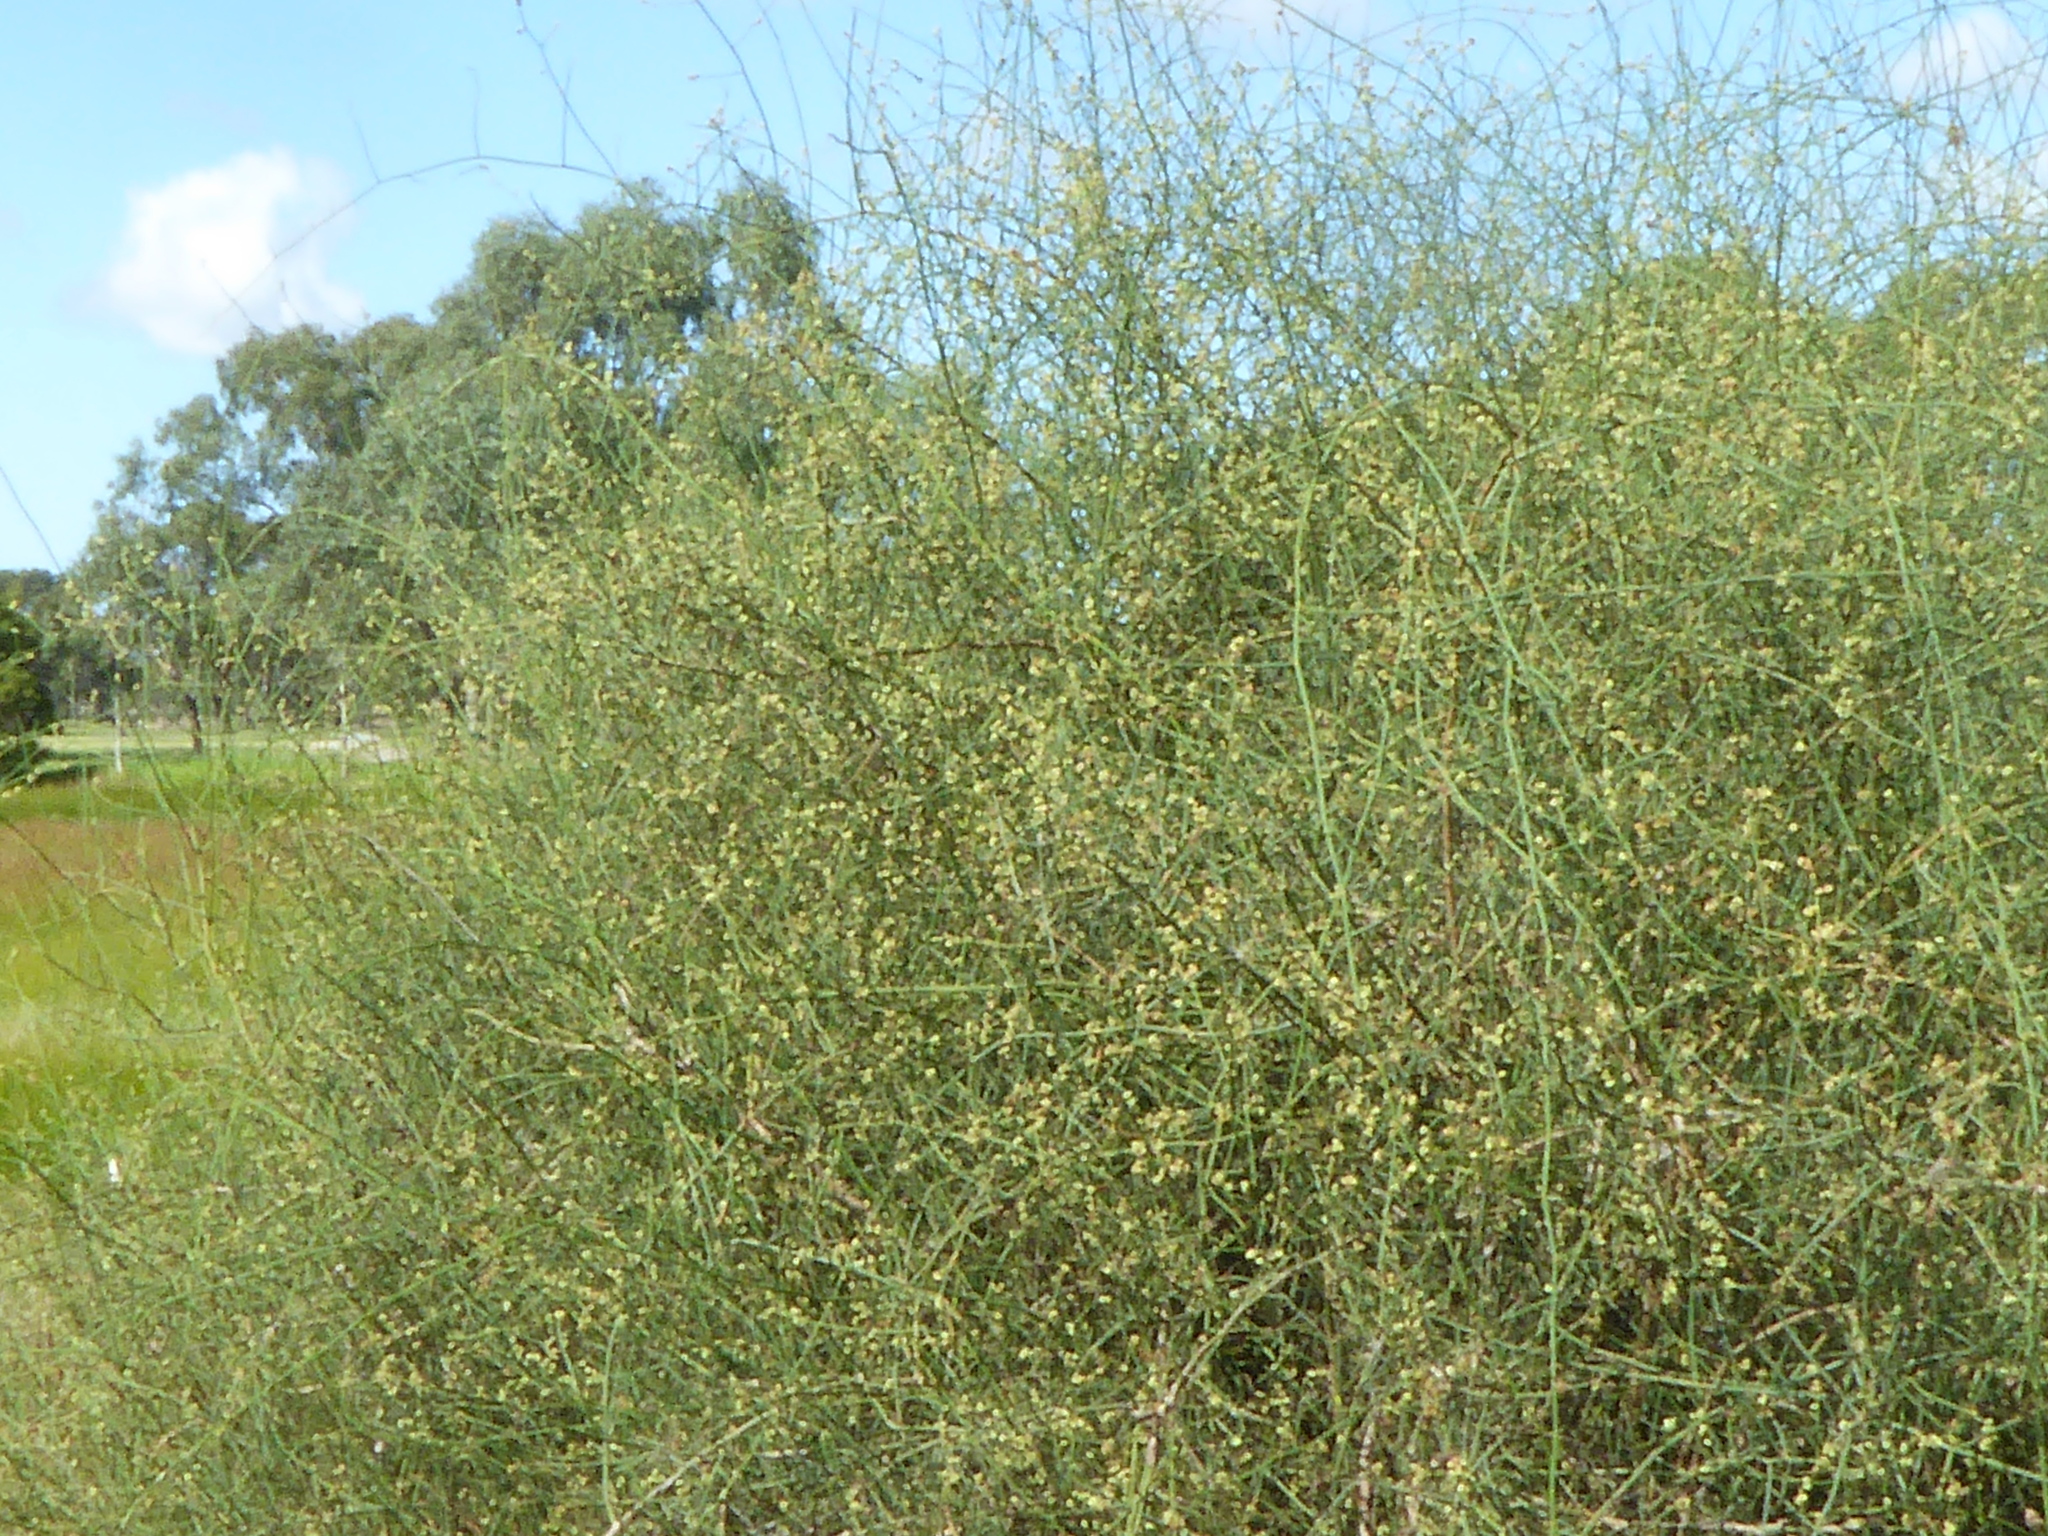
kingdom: Plantae
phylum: Tracheophyta
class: Magnoliopsida
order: Caryophyllales
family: Polygonaceae
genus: Duma
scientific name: Duma florulenta
